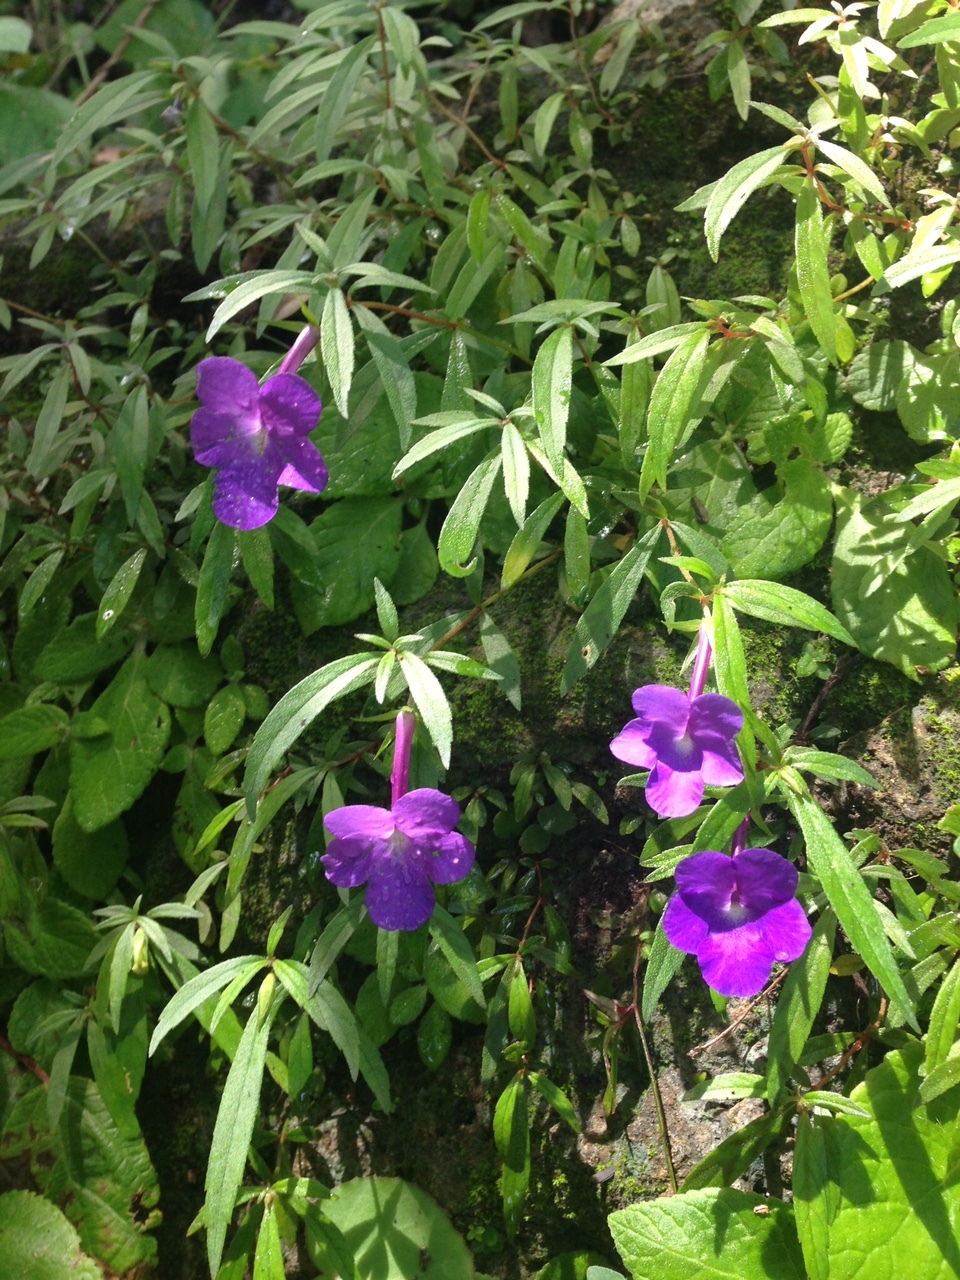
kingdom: Plantae
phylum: Tracheophyta
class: Magnoliopsida
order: Lamiales
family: Gesneriaceae
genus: Achimenes
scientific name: Achimenes cettoana
